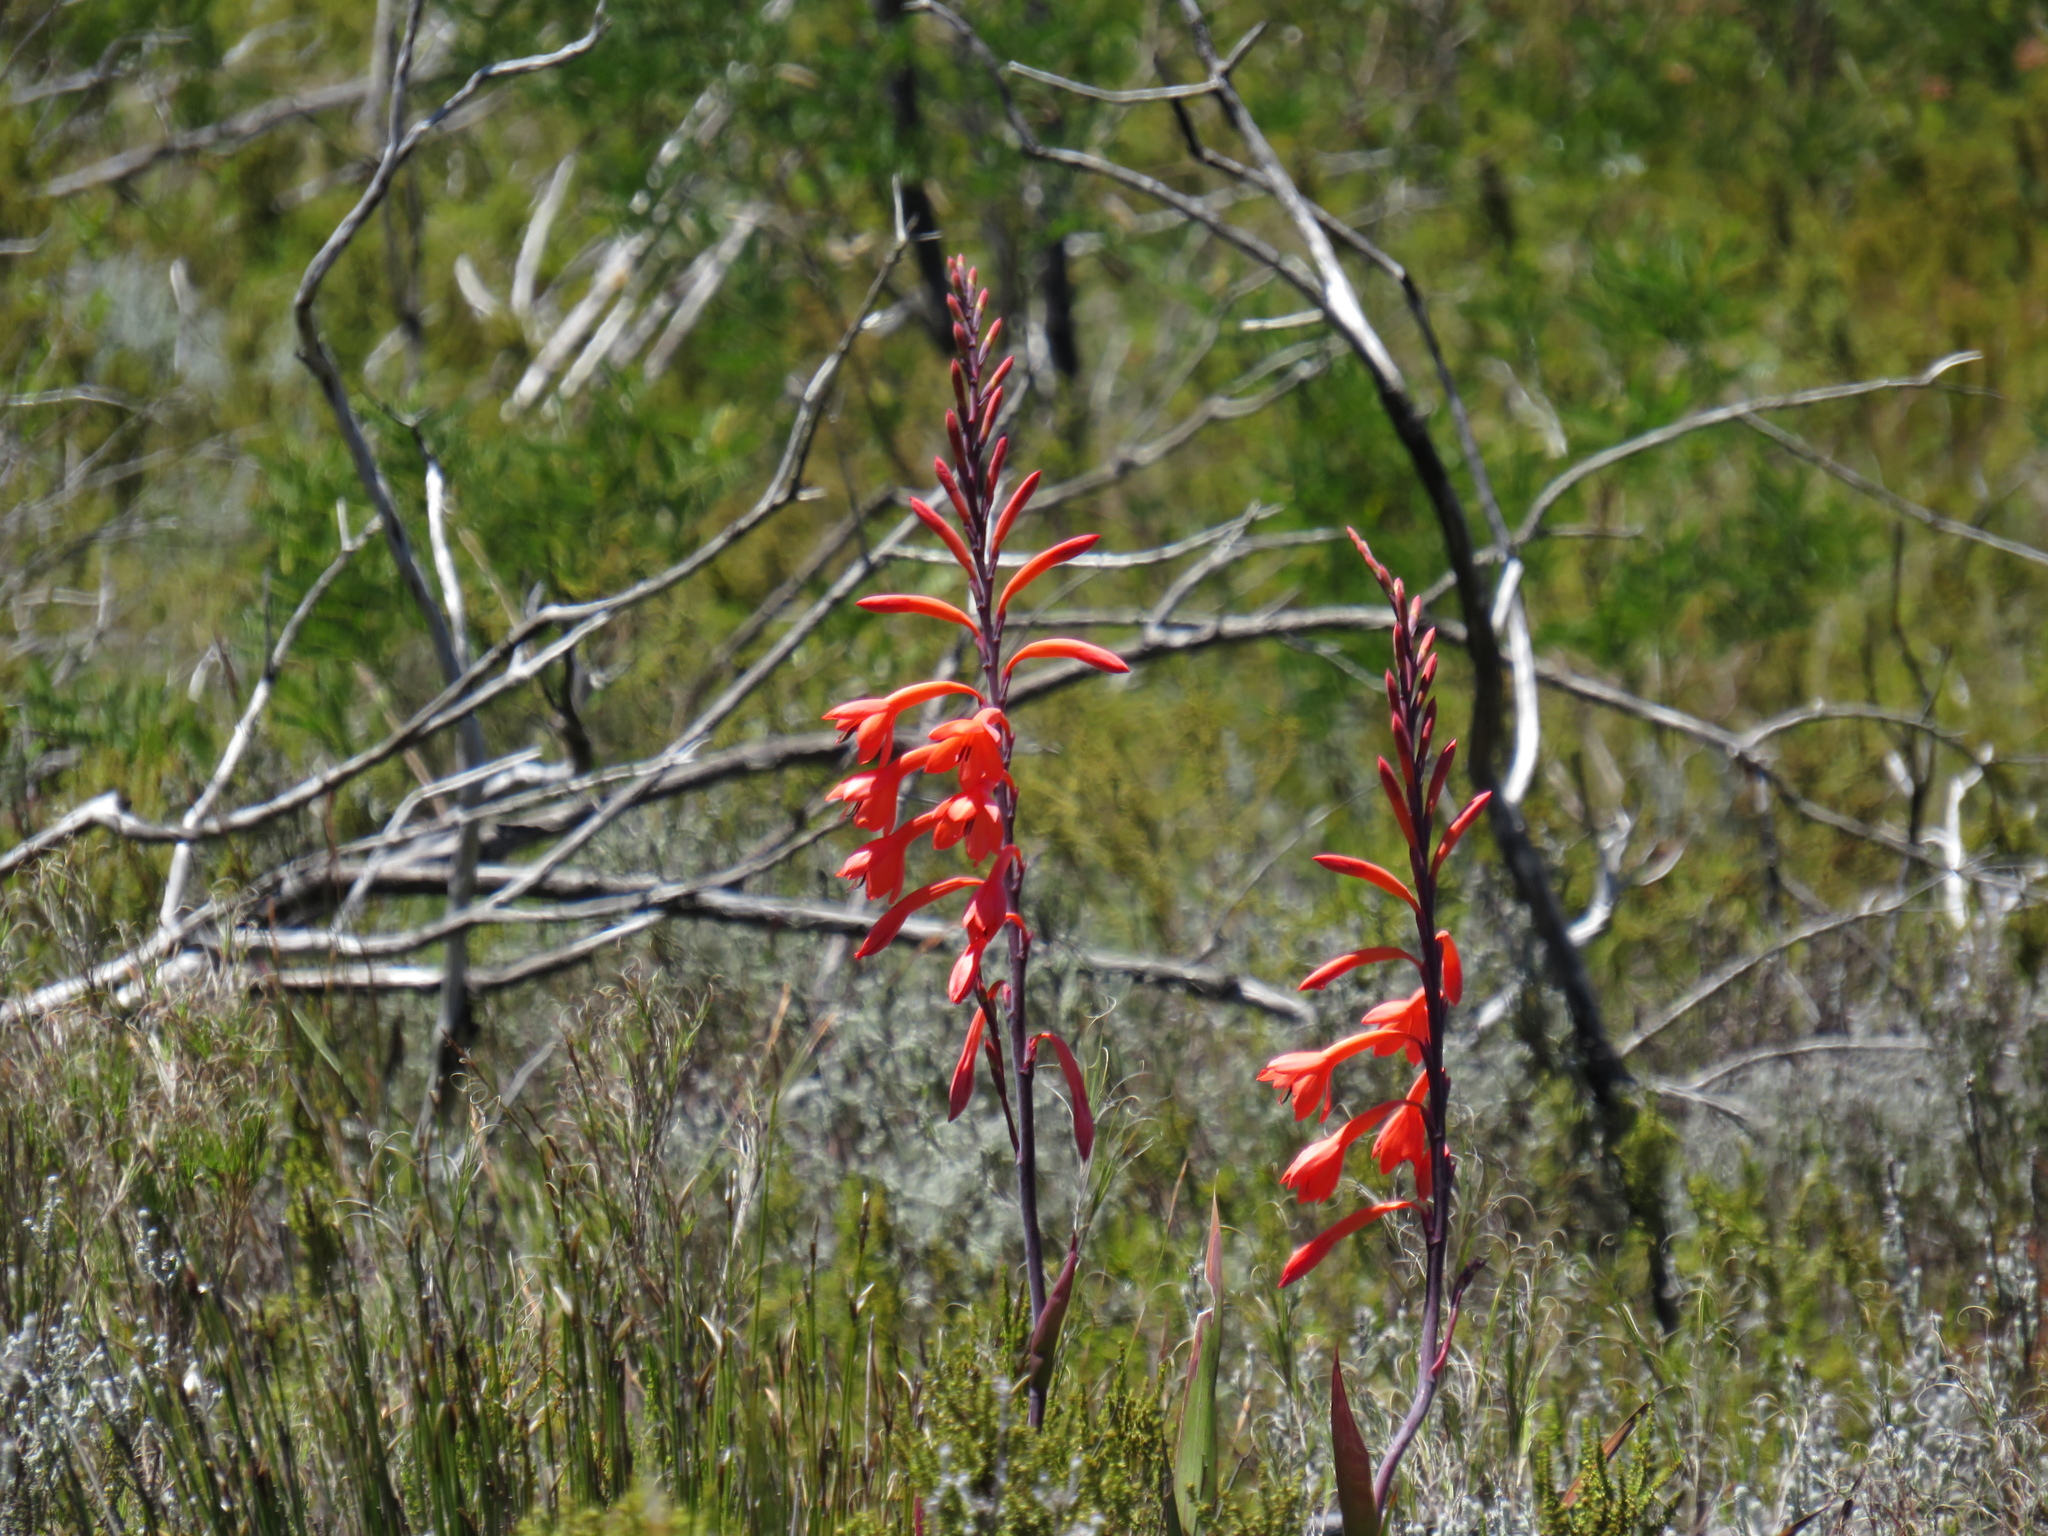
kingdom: Plantae
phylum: Tracheophyta
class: Liliopsida
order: Asparagales
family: Iridaceae
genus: Watsonia
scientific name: Watsonia tabularis
